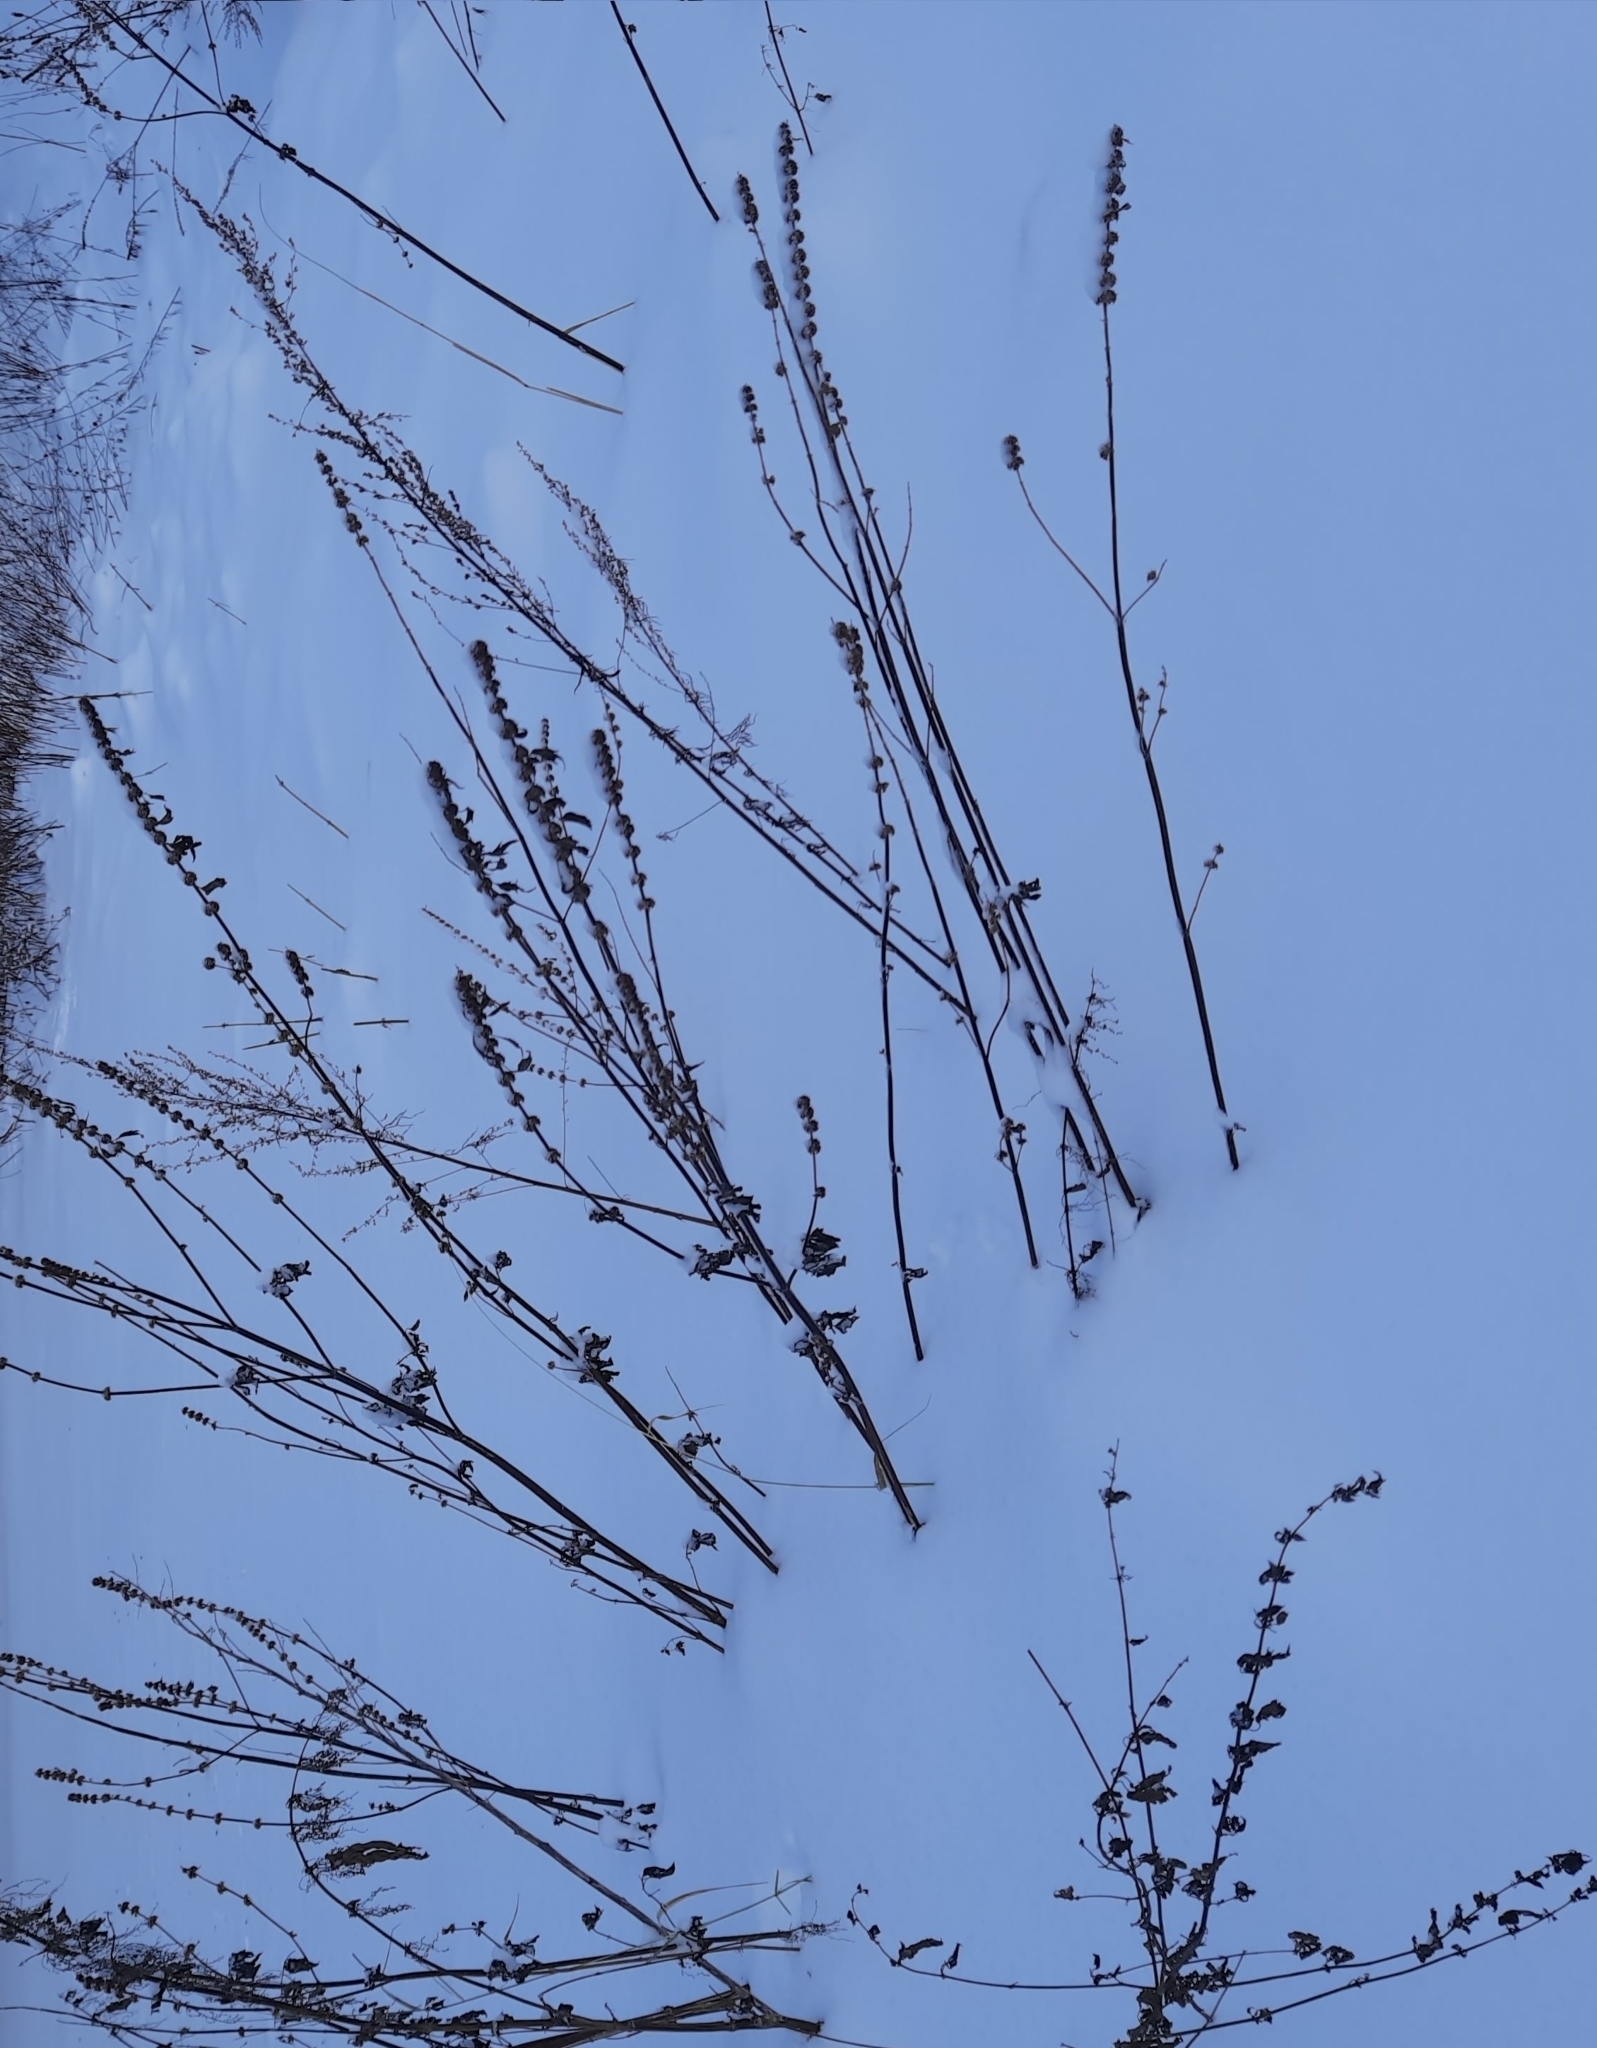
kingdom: Plantae
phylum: Tracheophyta
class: Magnoliopsida
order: Lamiales
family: Lamiaceae
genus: Leonurus
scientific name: Leonurus quinquelobatus
